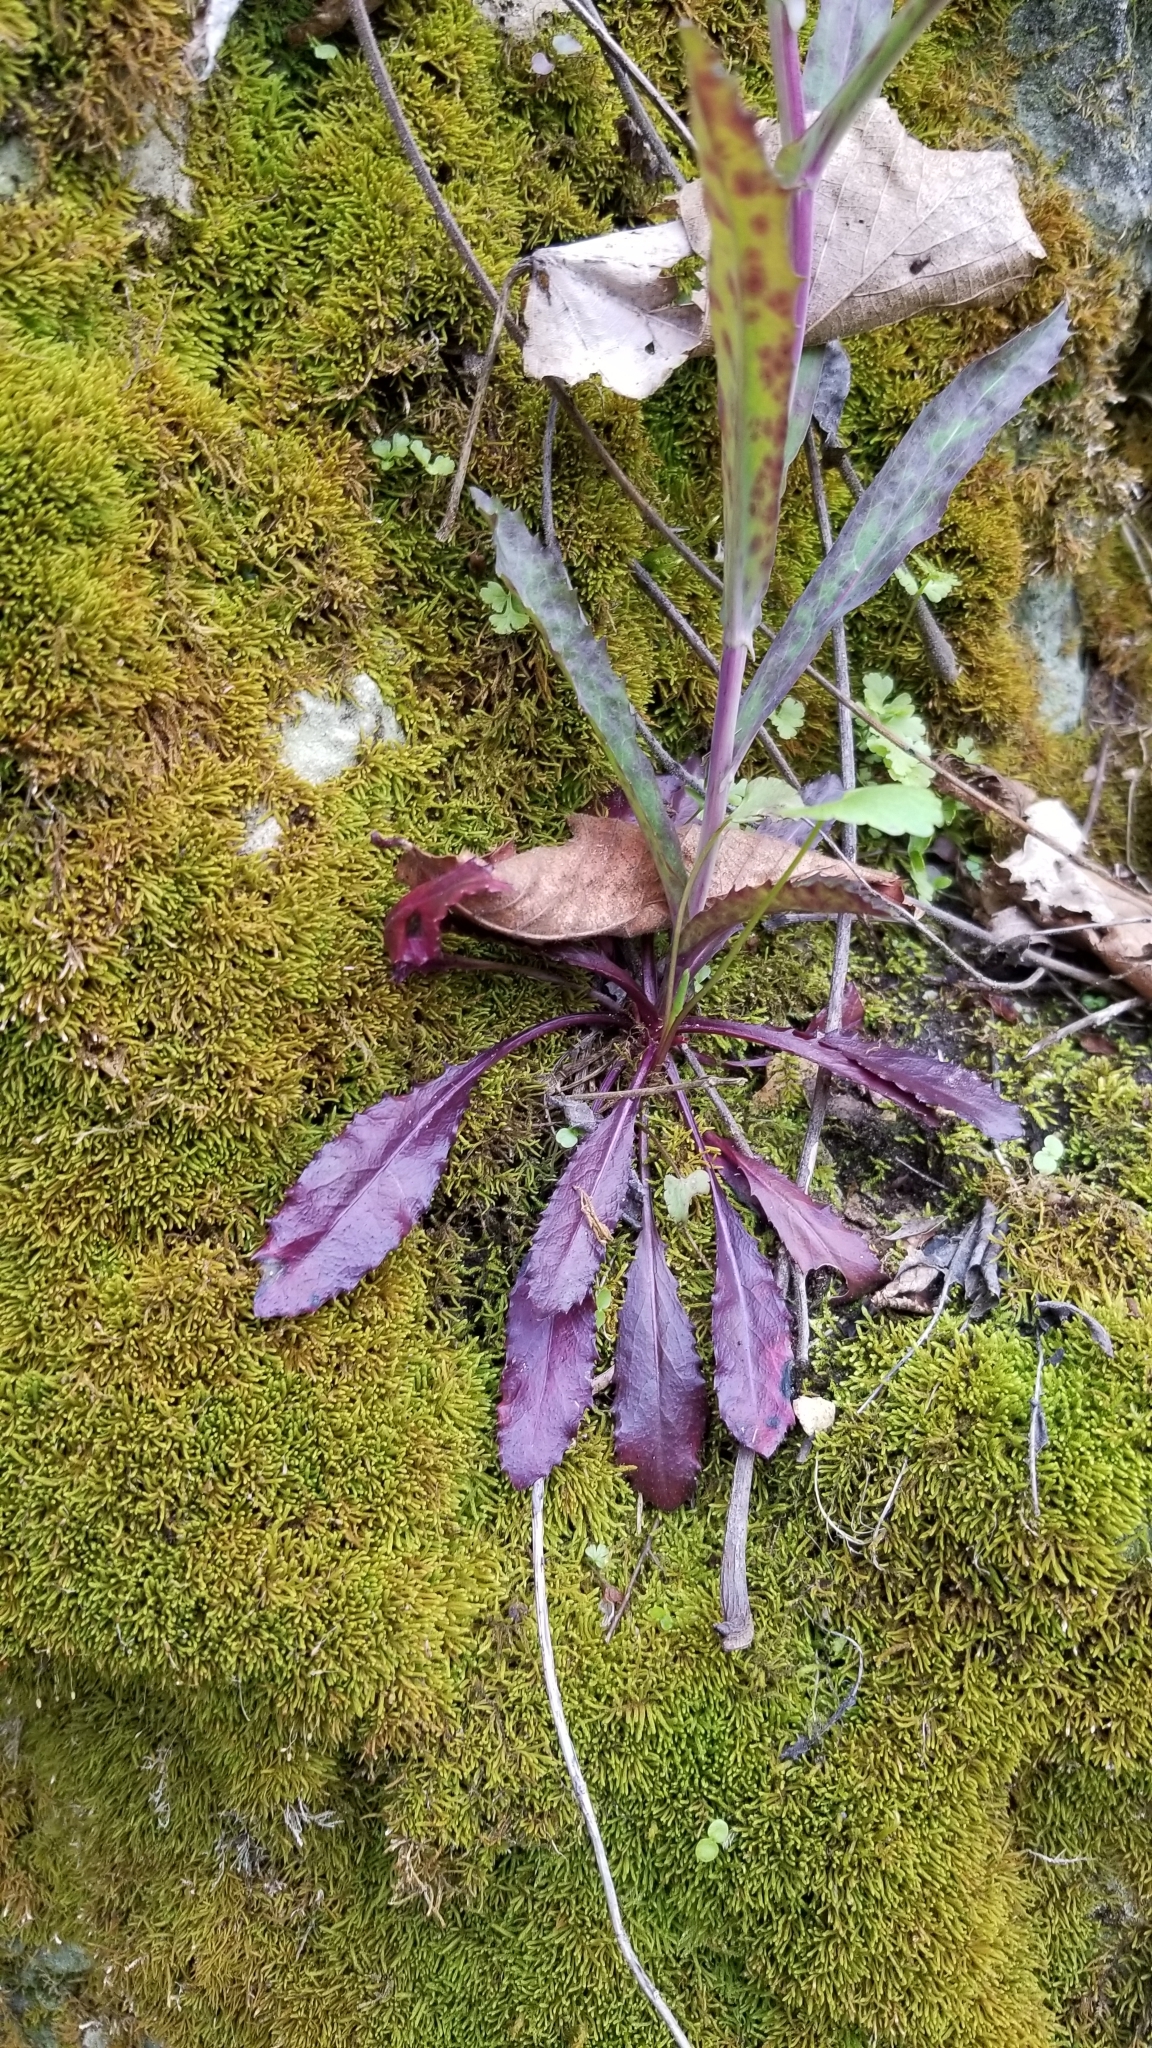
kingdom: Plantae
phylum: Tracheophyta
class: Magnoliopsida
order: Brassicales
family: Brassicaceae
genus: Borodinia
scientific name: Borodinia laevigata
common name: Smooth rockcress
